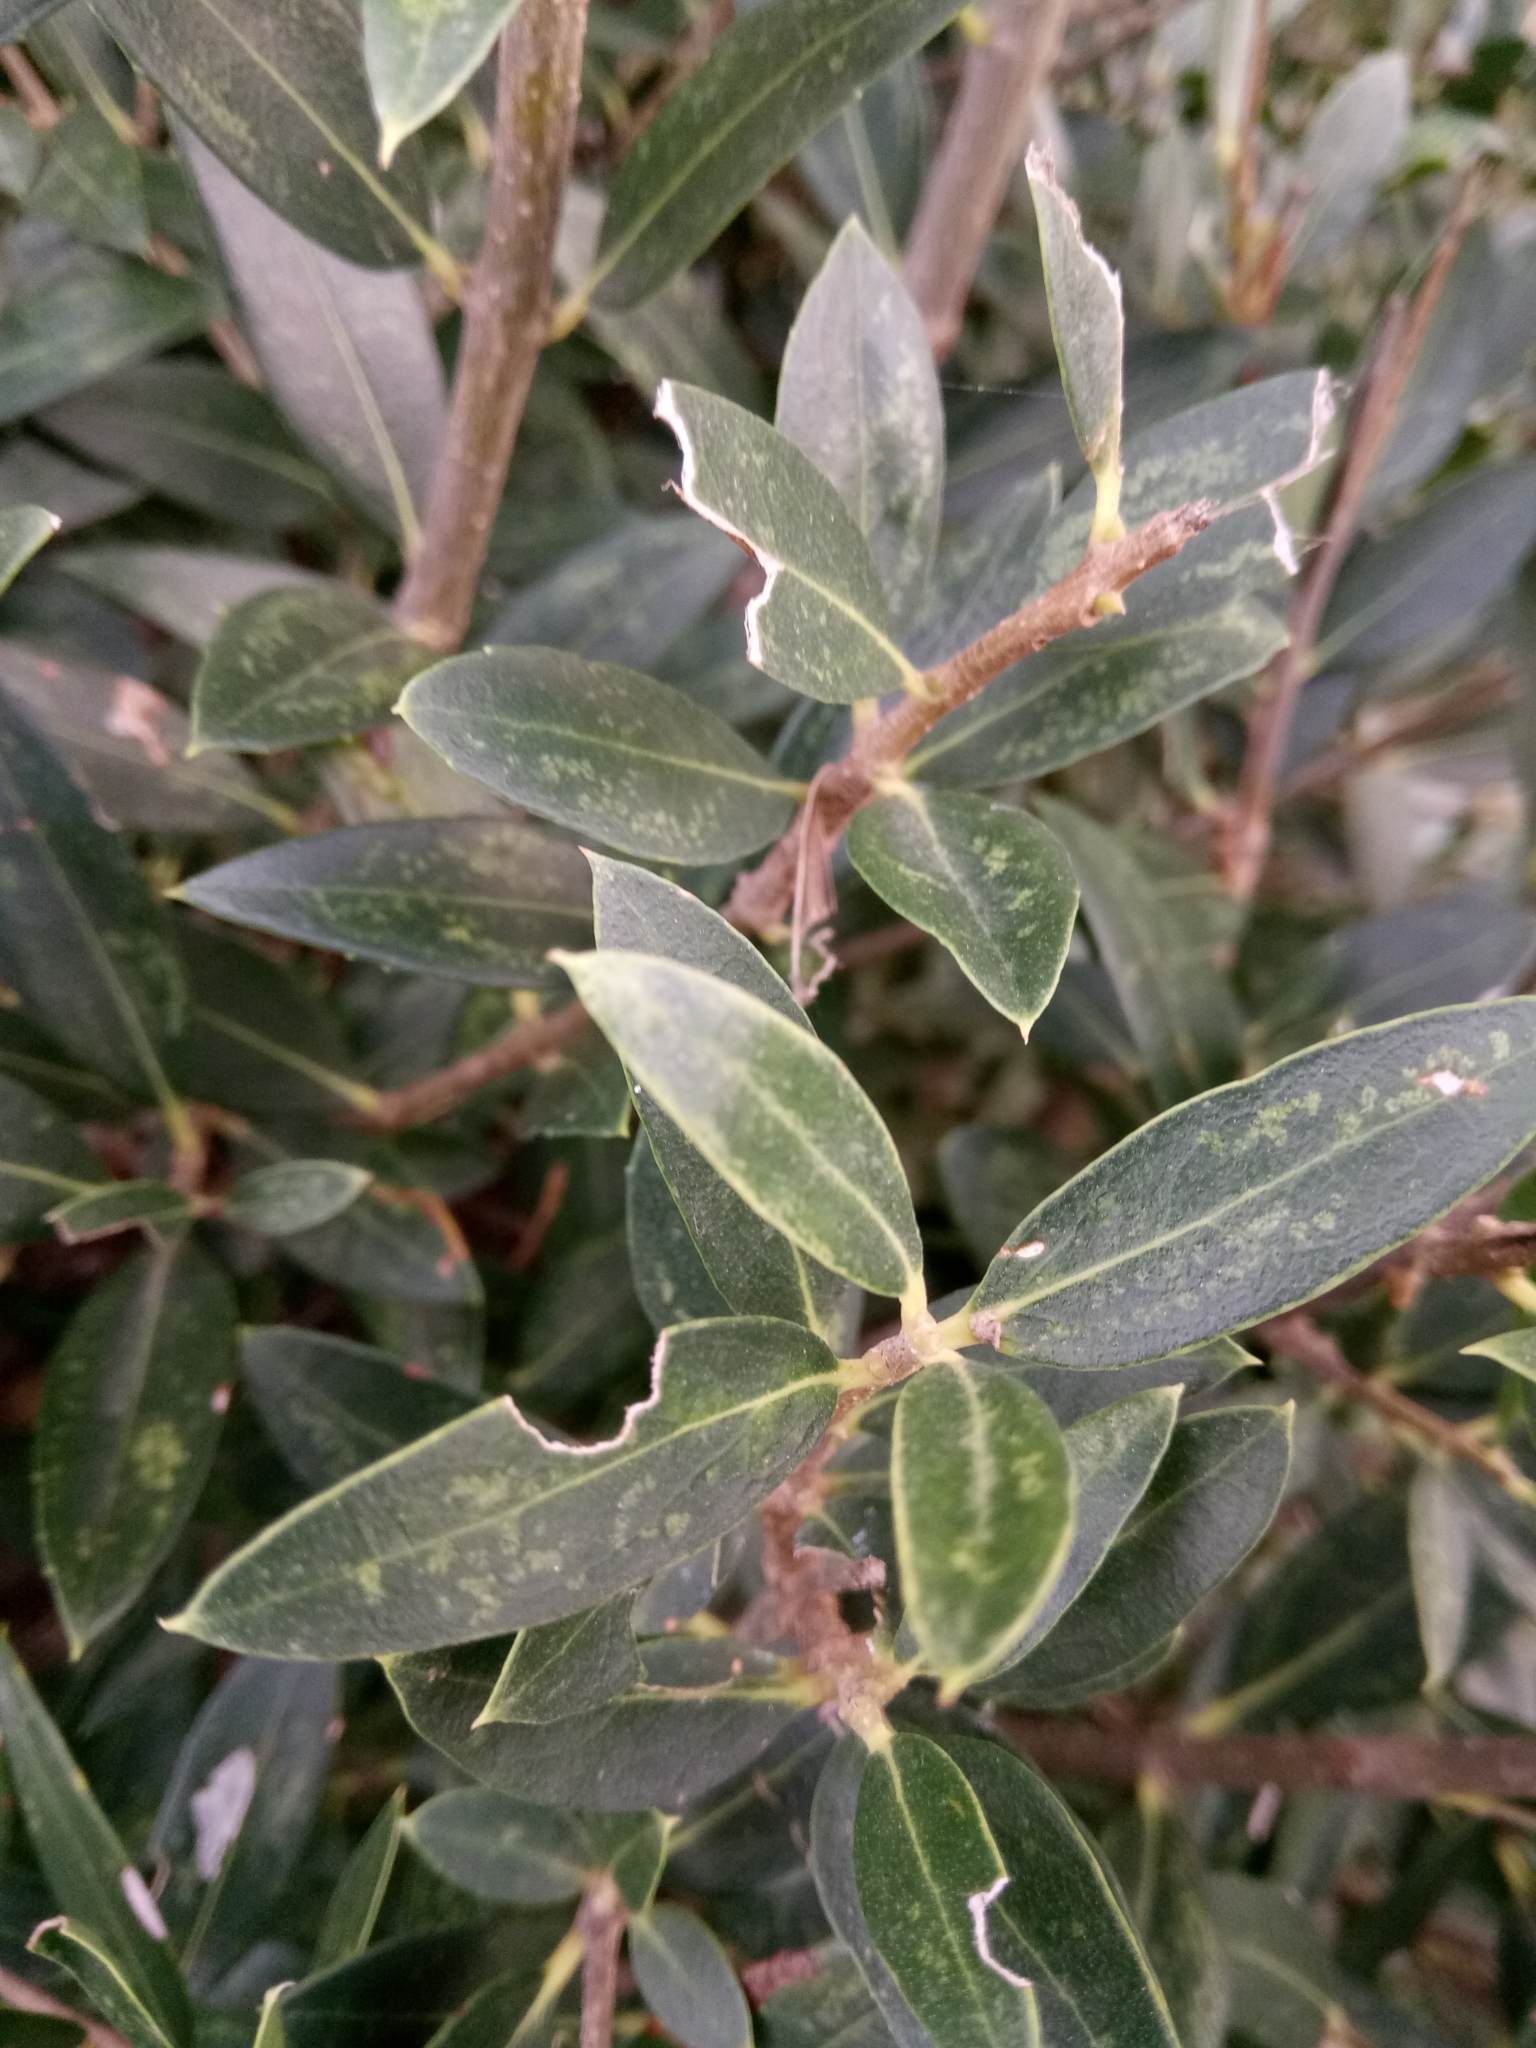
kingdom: Plantae
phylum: Tracheophyta
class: Magnoliopsida
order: Lamiales
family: Oleaceae
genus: Phillyrea
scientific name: Phillyrea latifolia
